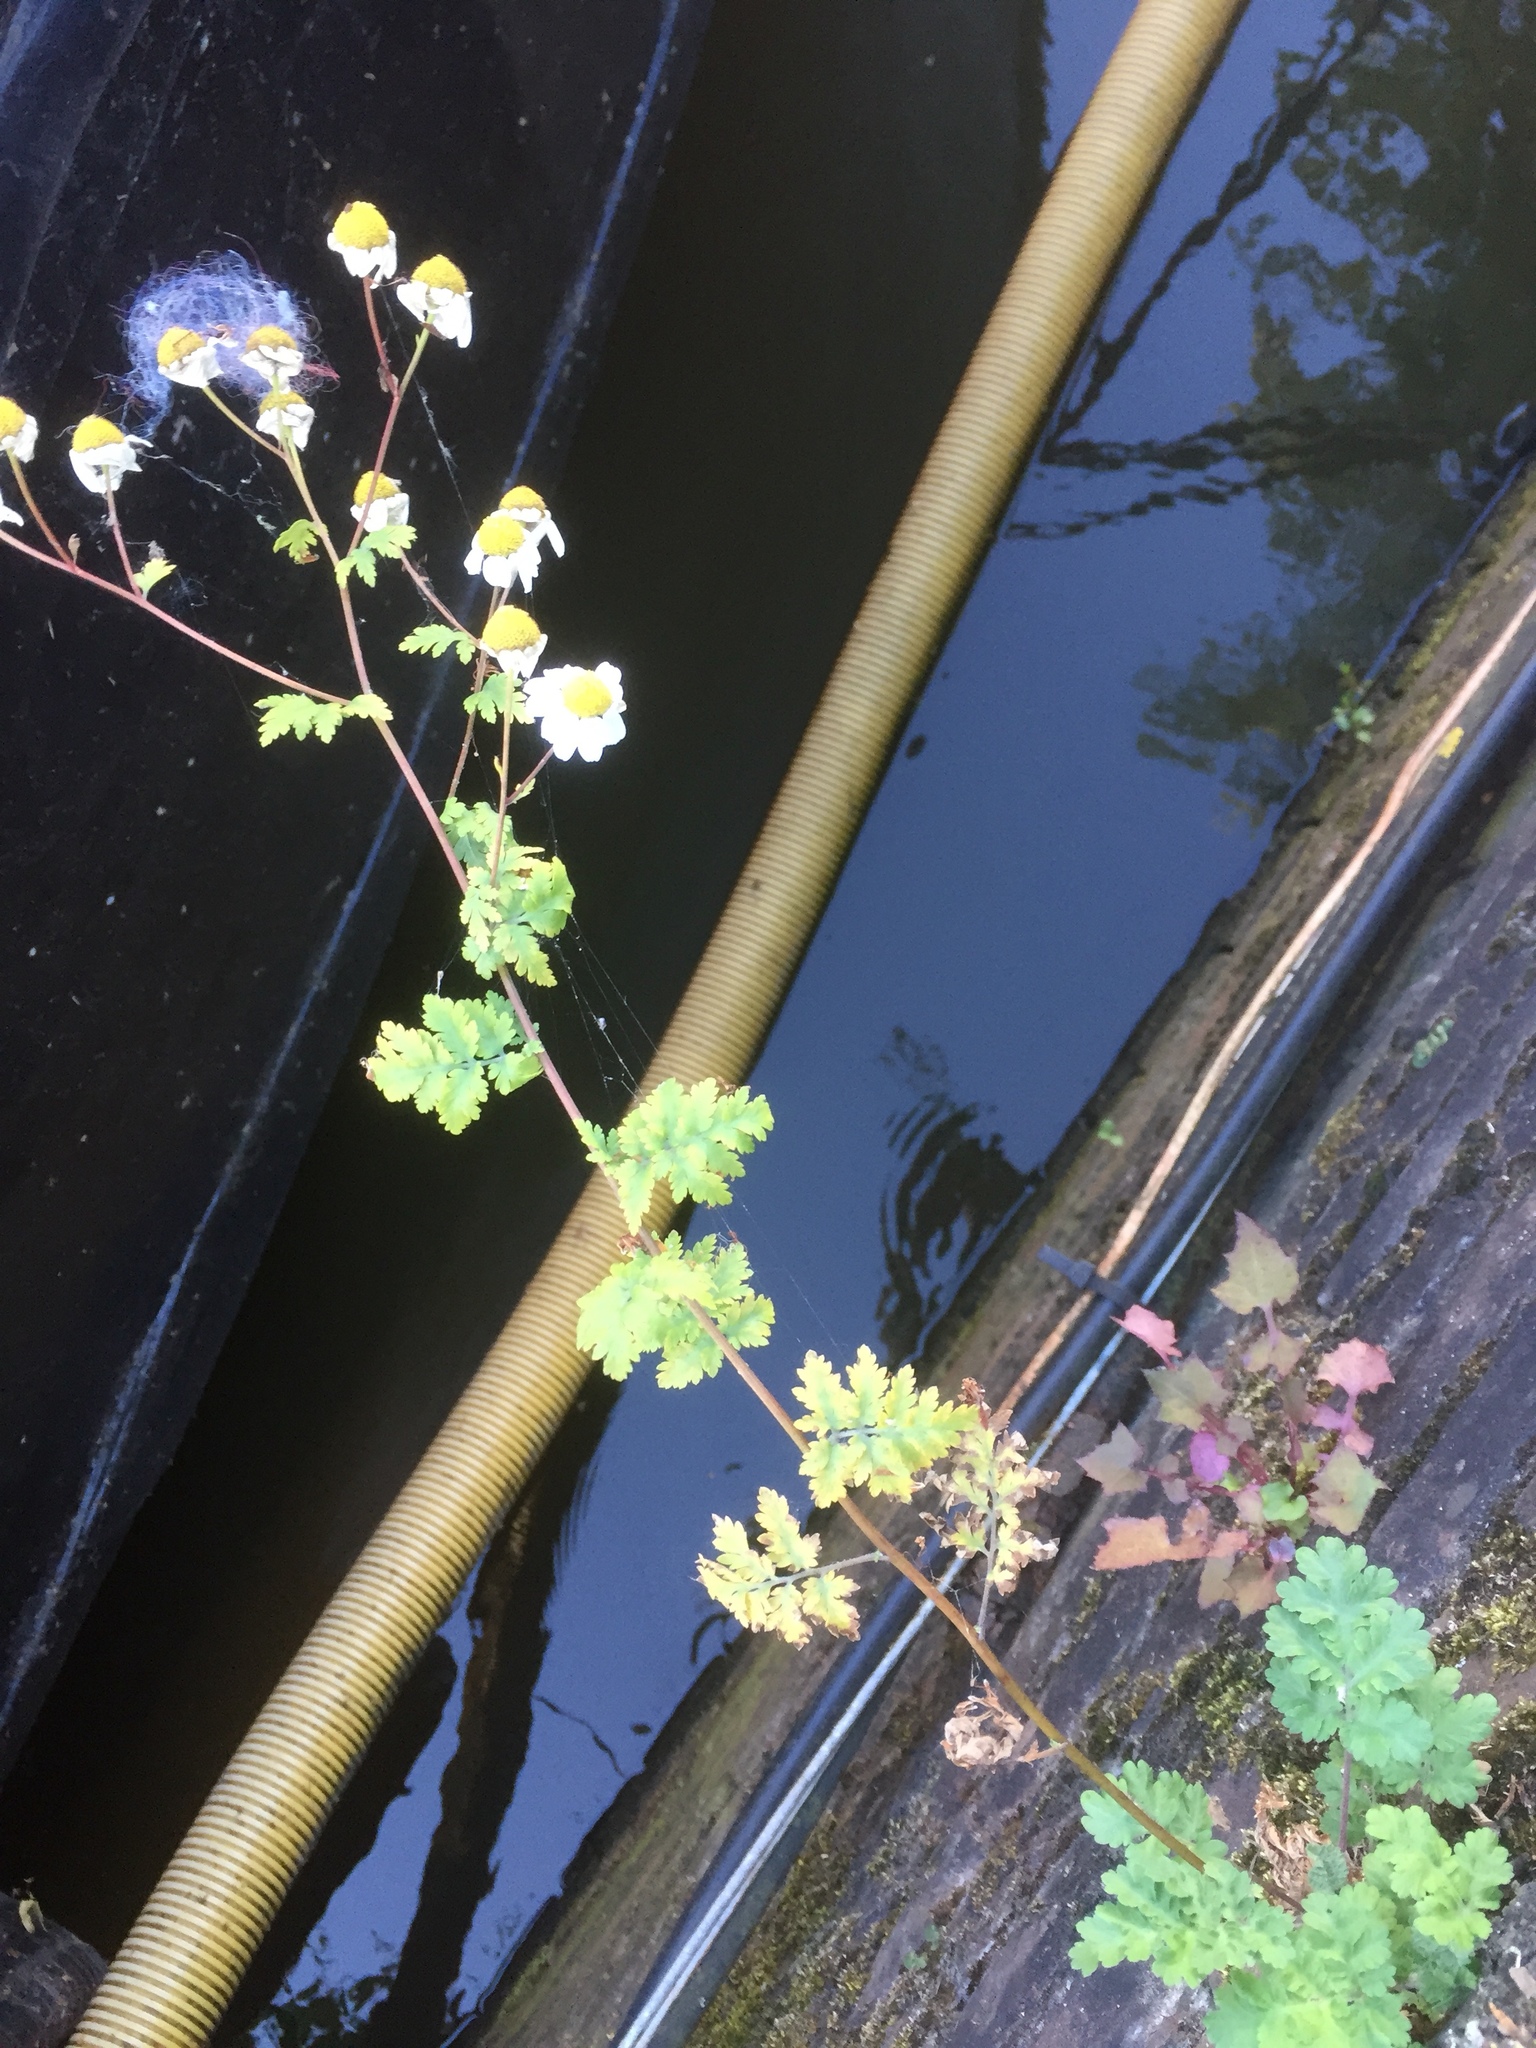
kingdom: Plantae
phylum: Tracheophyta
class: Magnoliopsida
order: Geraniales
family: Geraniaceae
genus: Geranium
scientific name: Geranium robertianum
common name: Herb-robert
